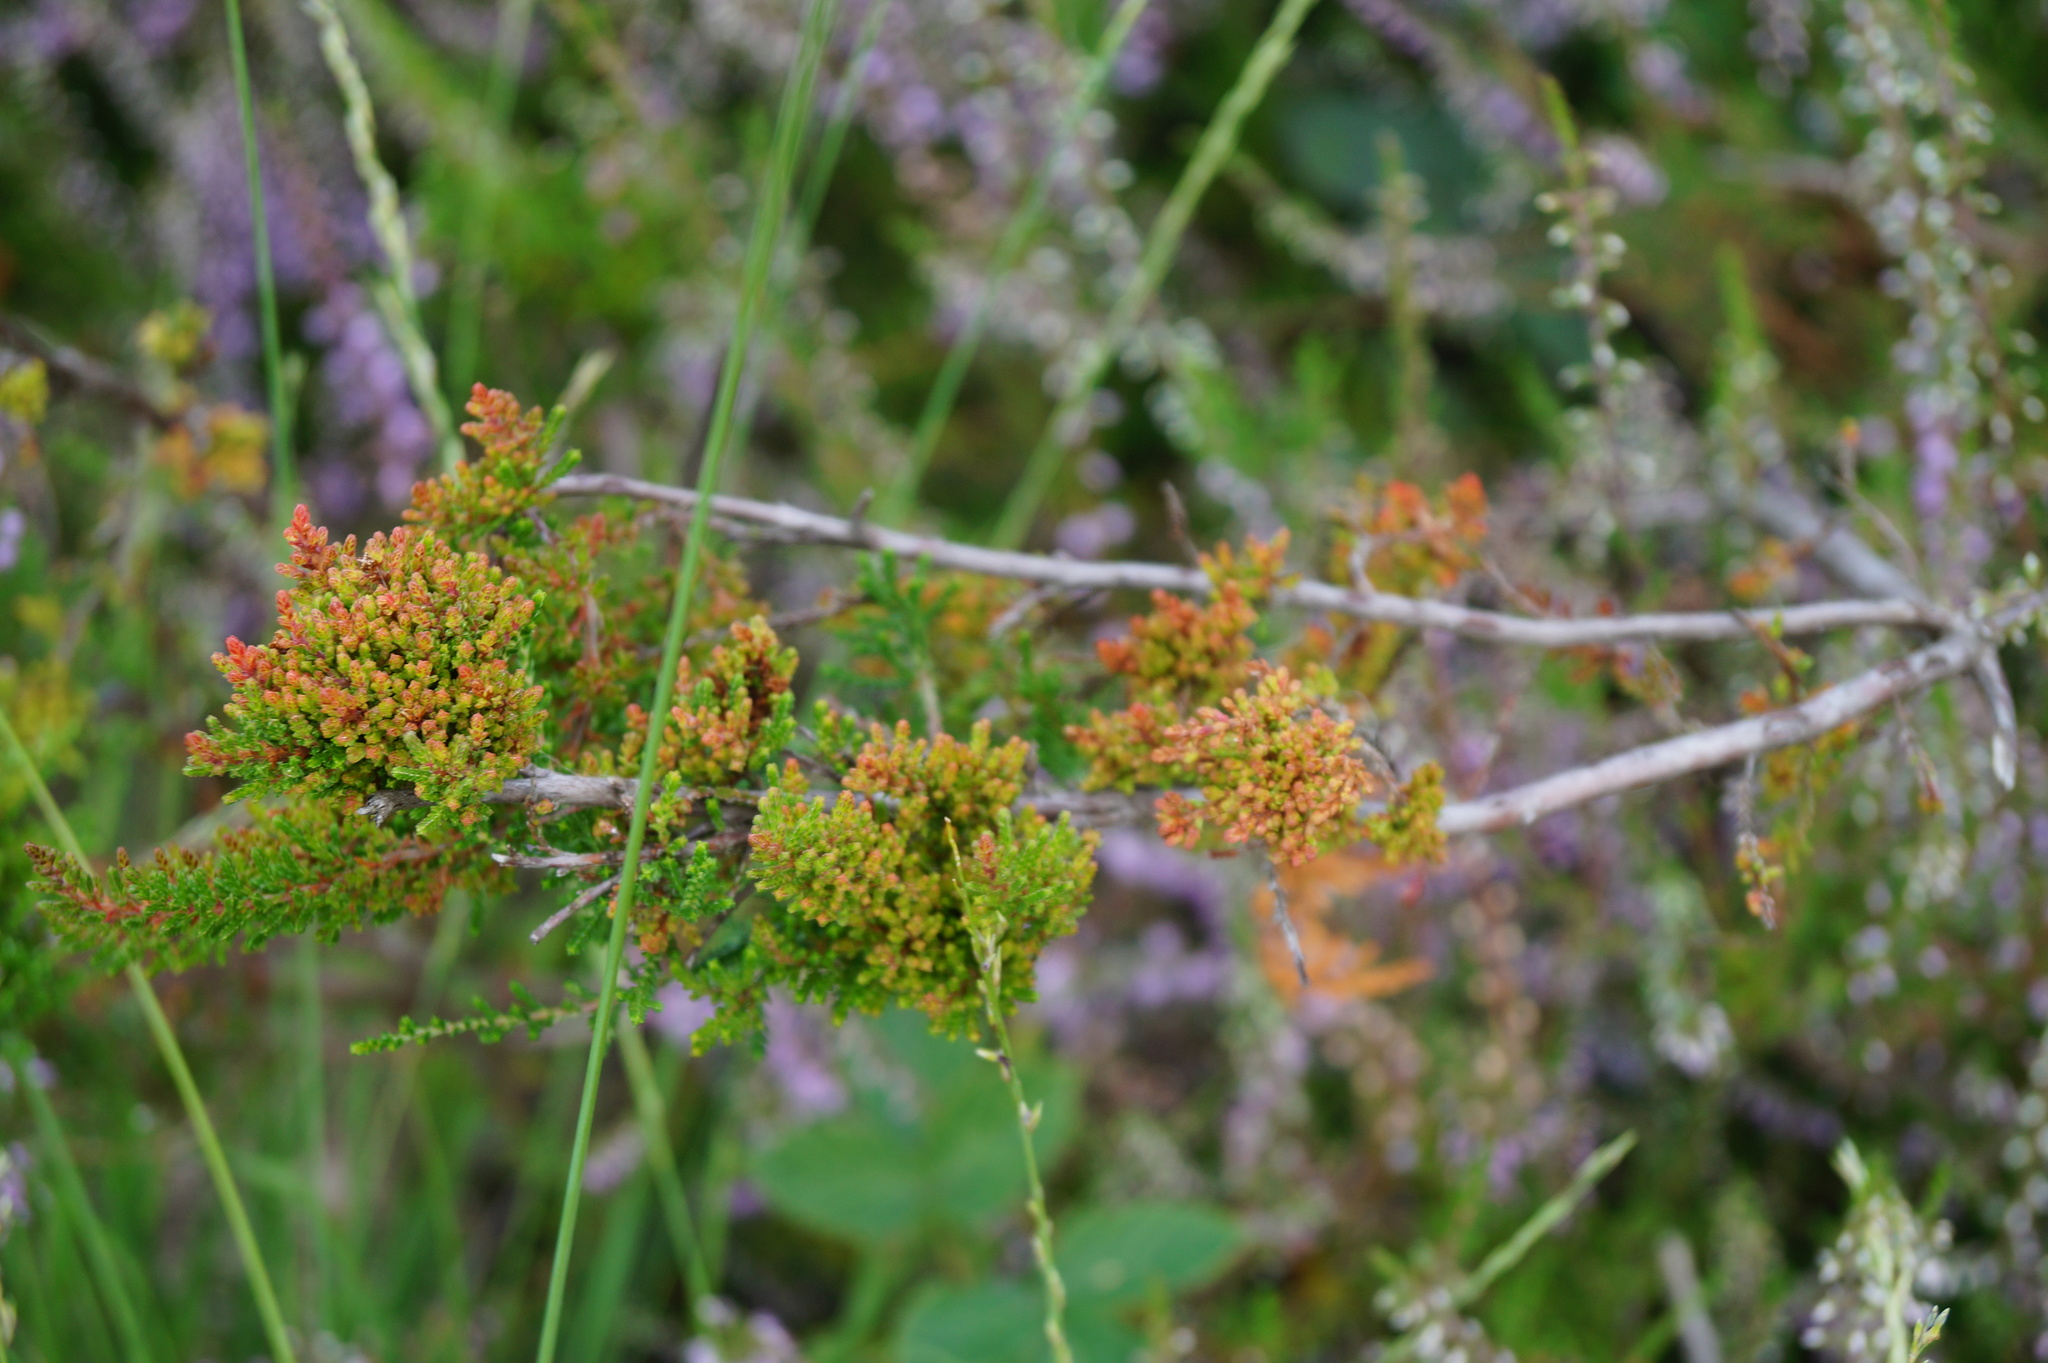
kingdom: Animalia
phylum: Arthropoda
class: Arachnida
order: Trombidiformes
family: Eriophyidae
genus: Aceria
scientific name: Aceria exigua
